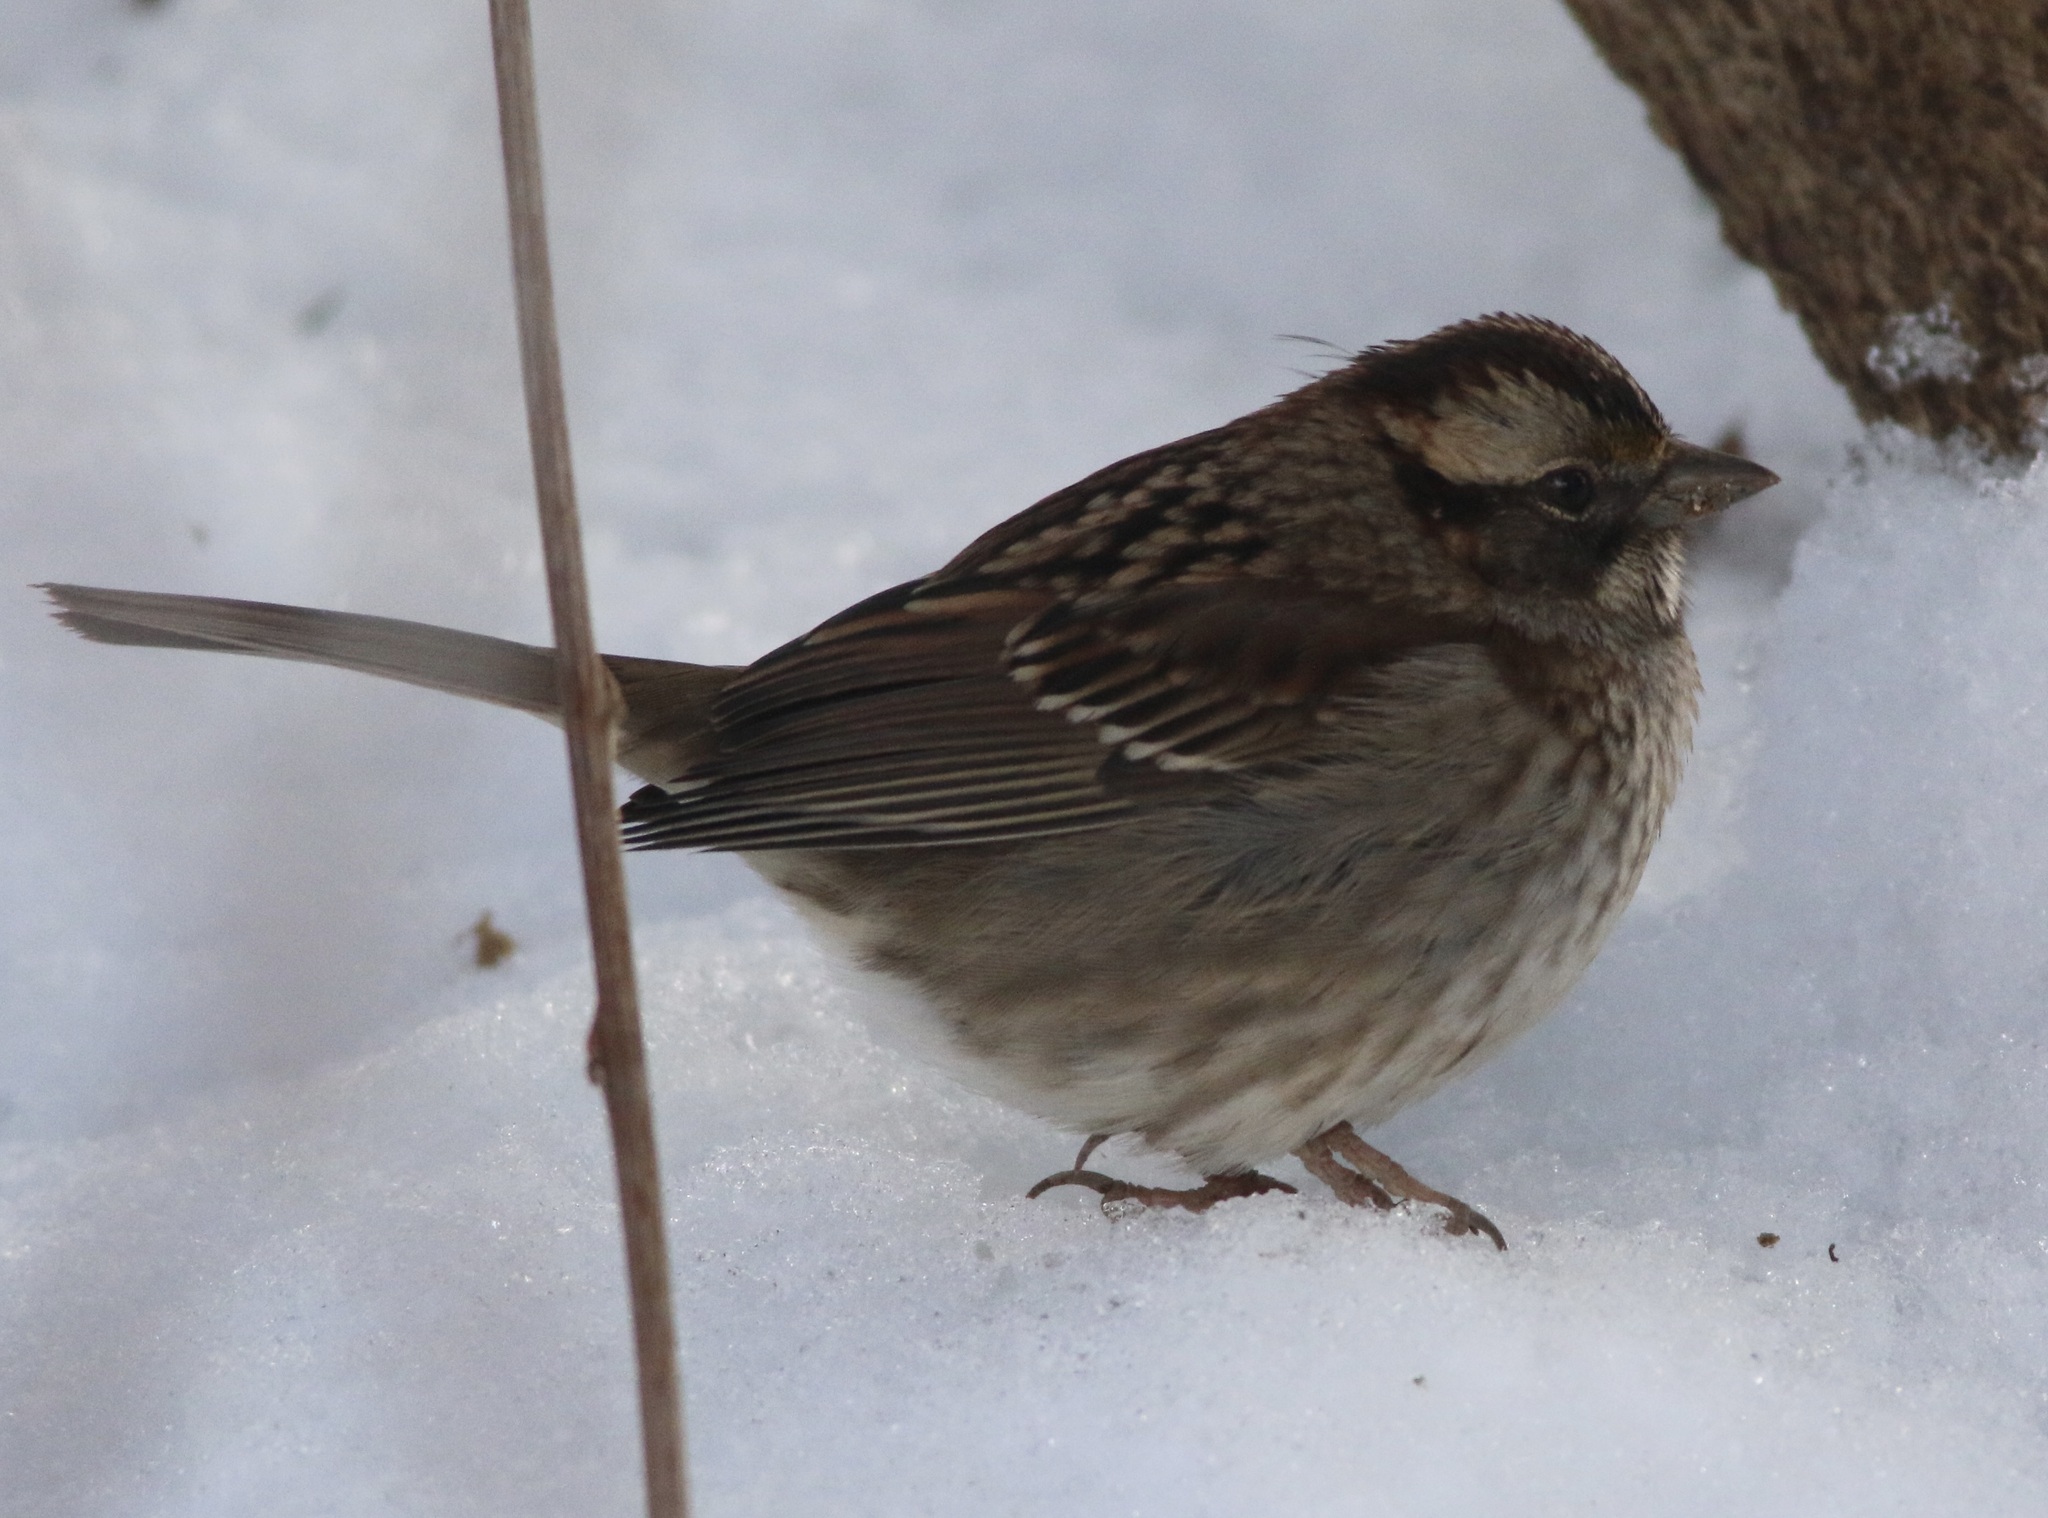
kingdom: Animalia
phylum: Chordata
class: Aves
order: Passeriformes
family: Passerellidae
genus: Zonotrichia
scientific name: Zonotrichia albicollis
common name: White-throated sparrow
